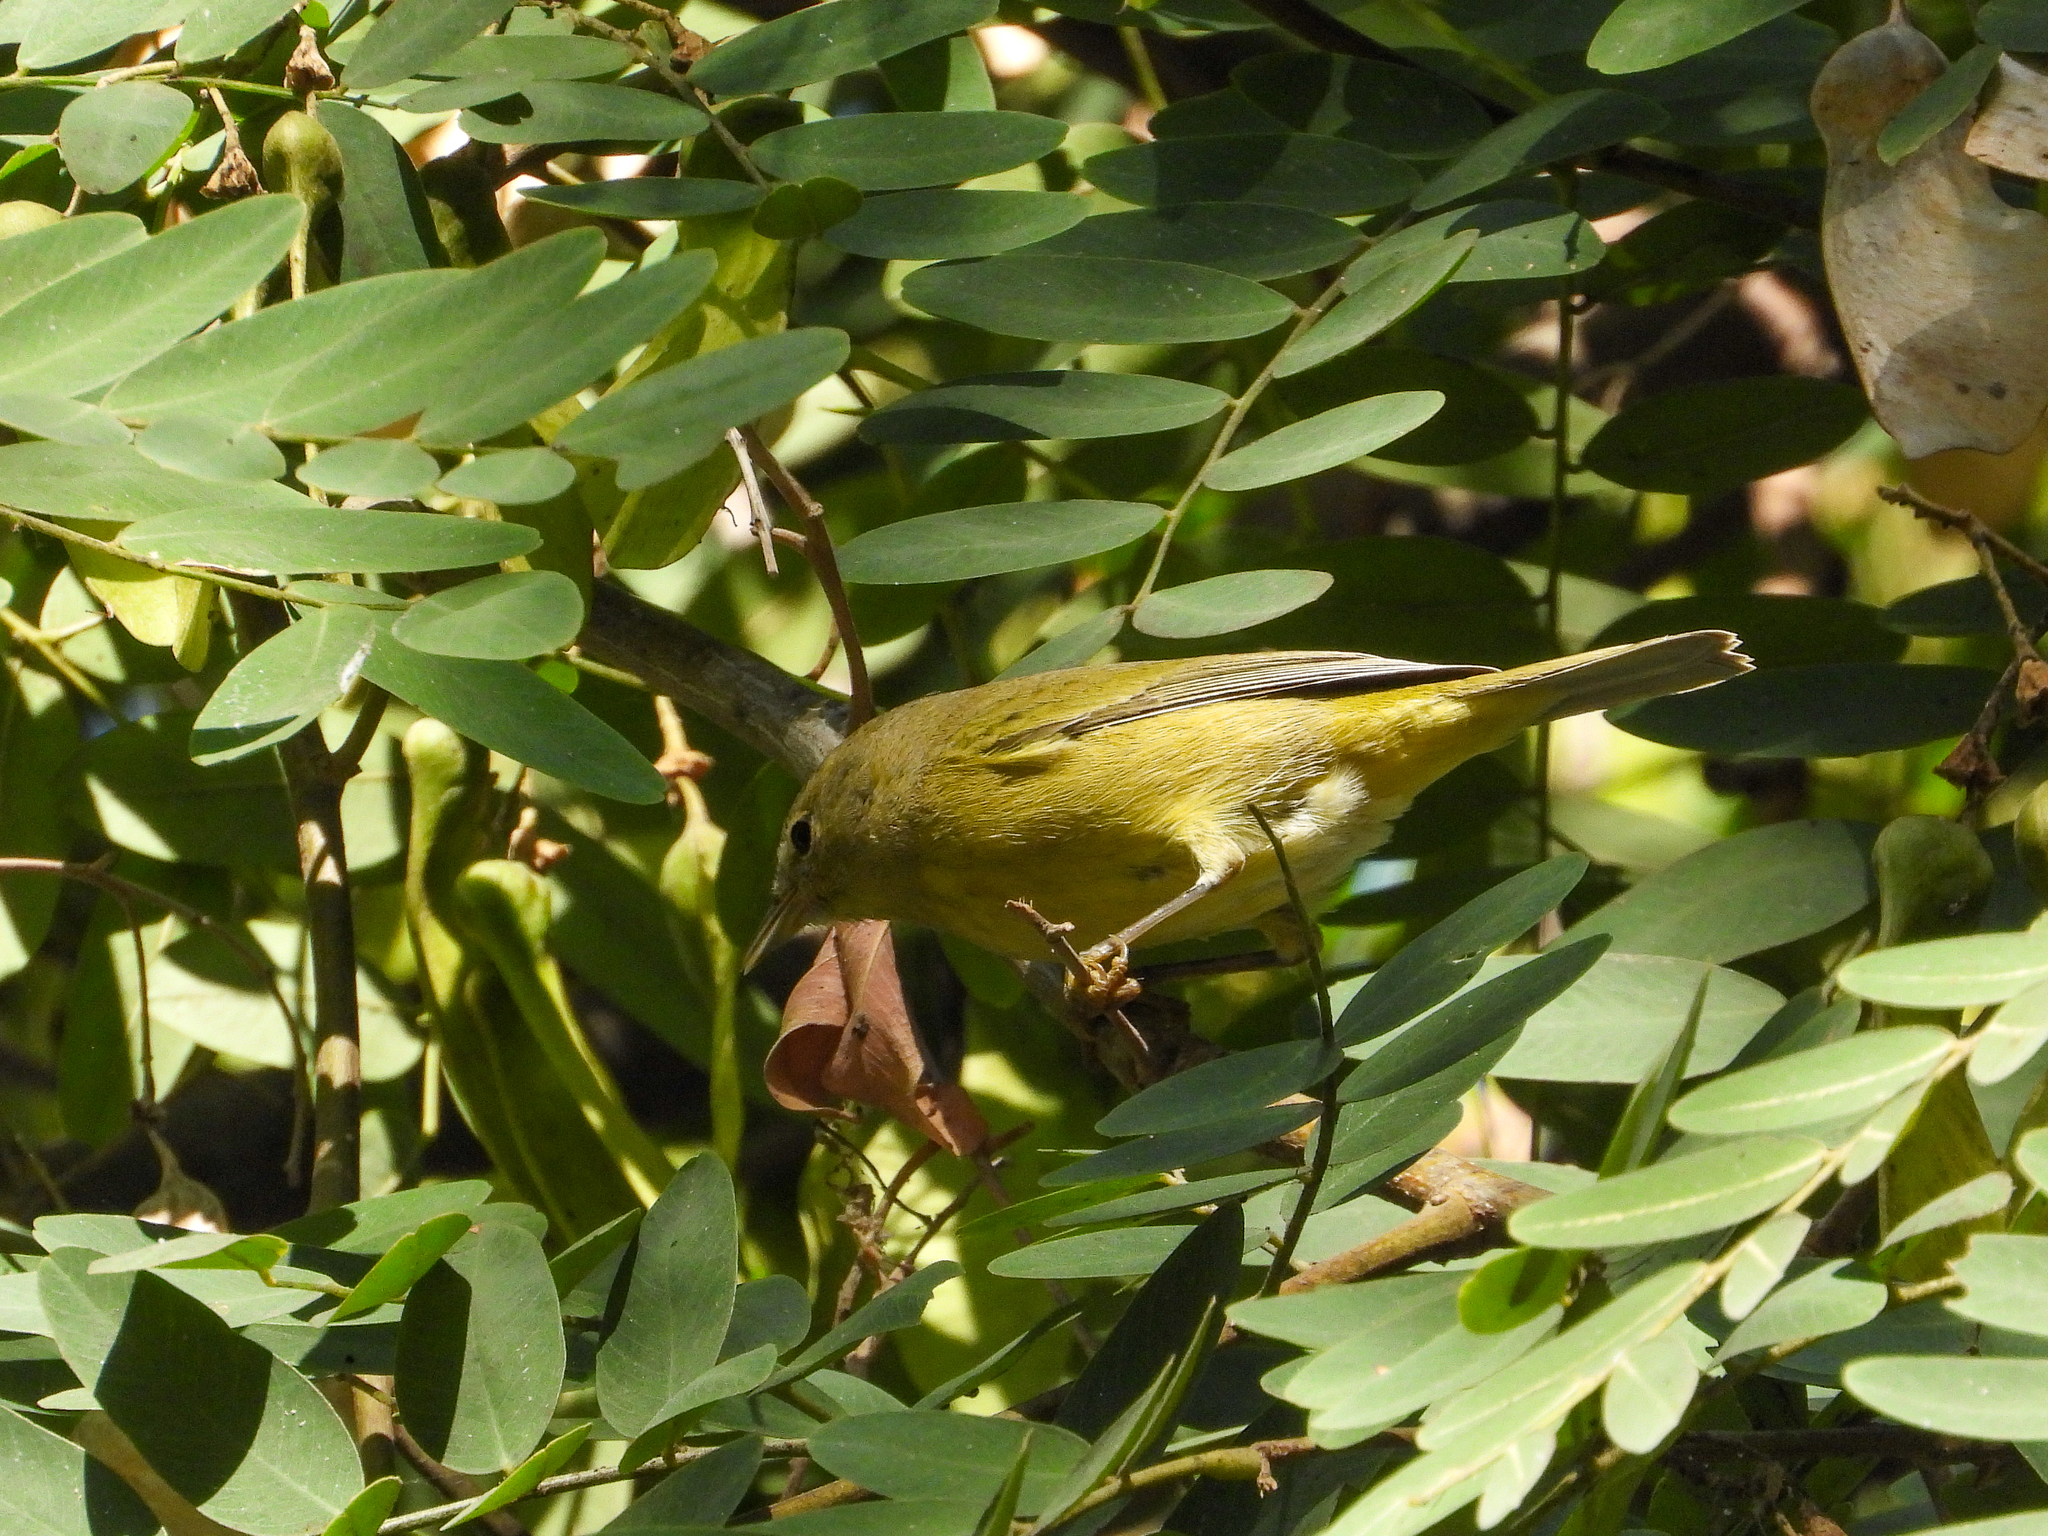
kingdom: Animalia
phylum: Chordata
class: Aves
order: Passeriformes
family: Parulidae
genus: Leiothlypis
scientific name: Leiothlypis celata
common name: Orange-crowned warbler
